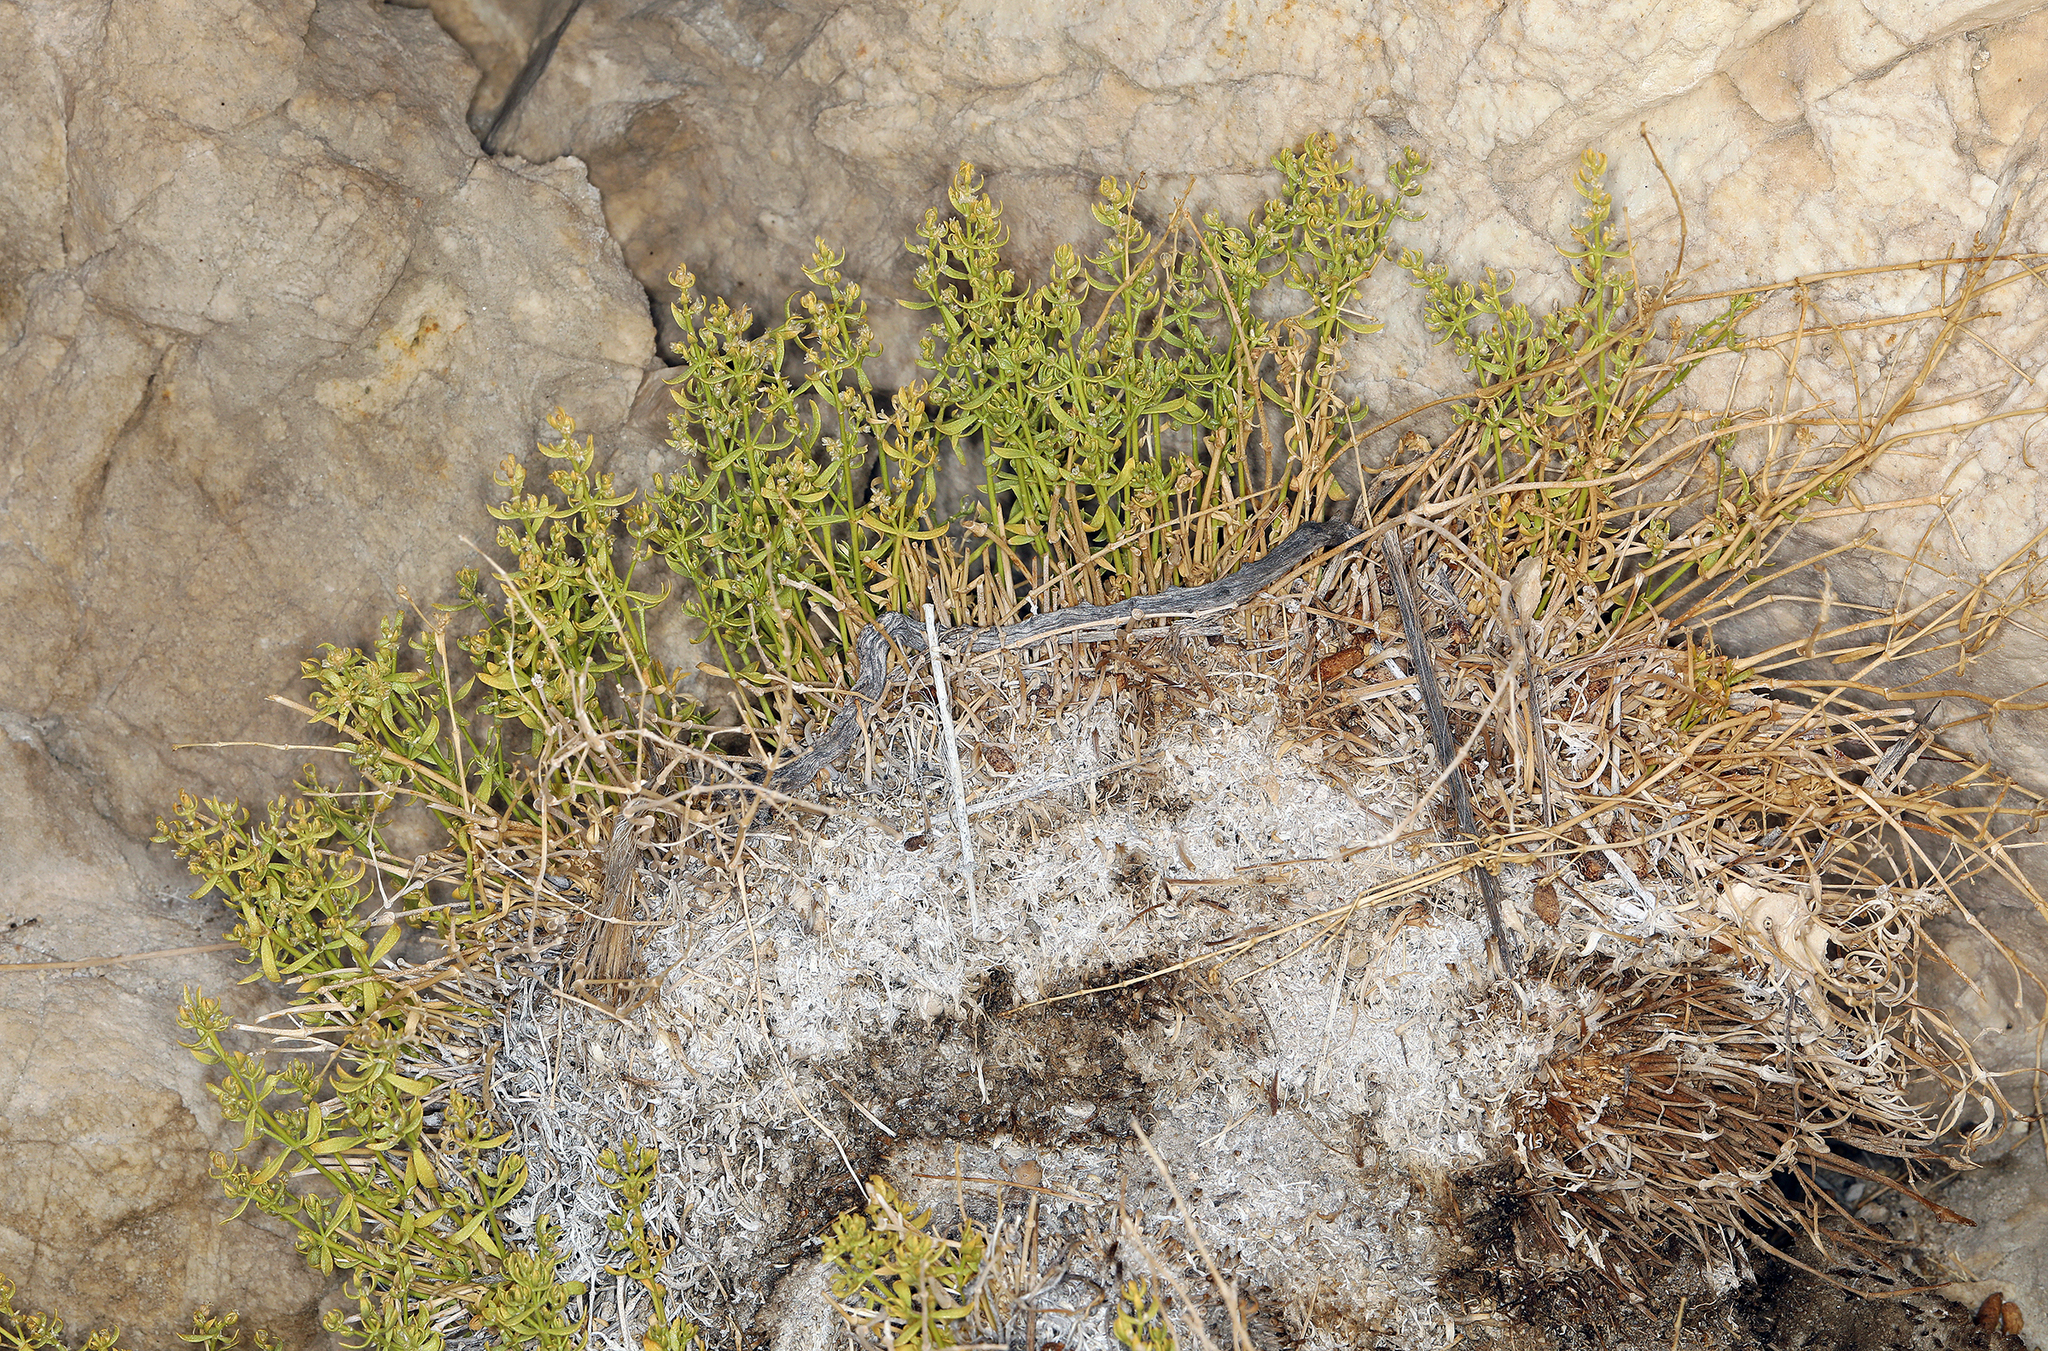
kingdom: Plantae
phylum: Tracheophyta
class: Magnoliopsida
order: Caryophyllales
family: Caryophyllaceae
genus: Scopulophila
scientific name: Scopulophila rixfordii
